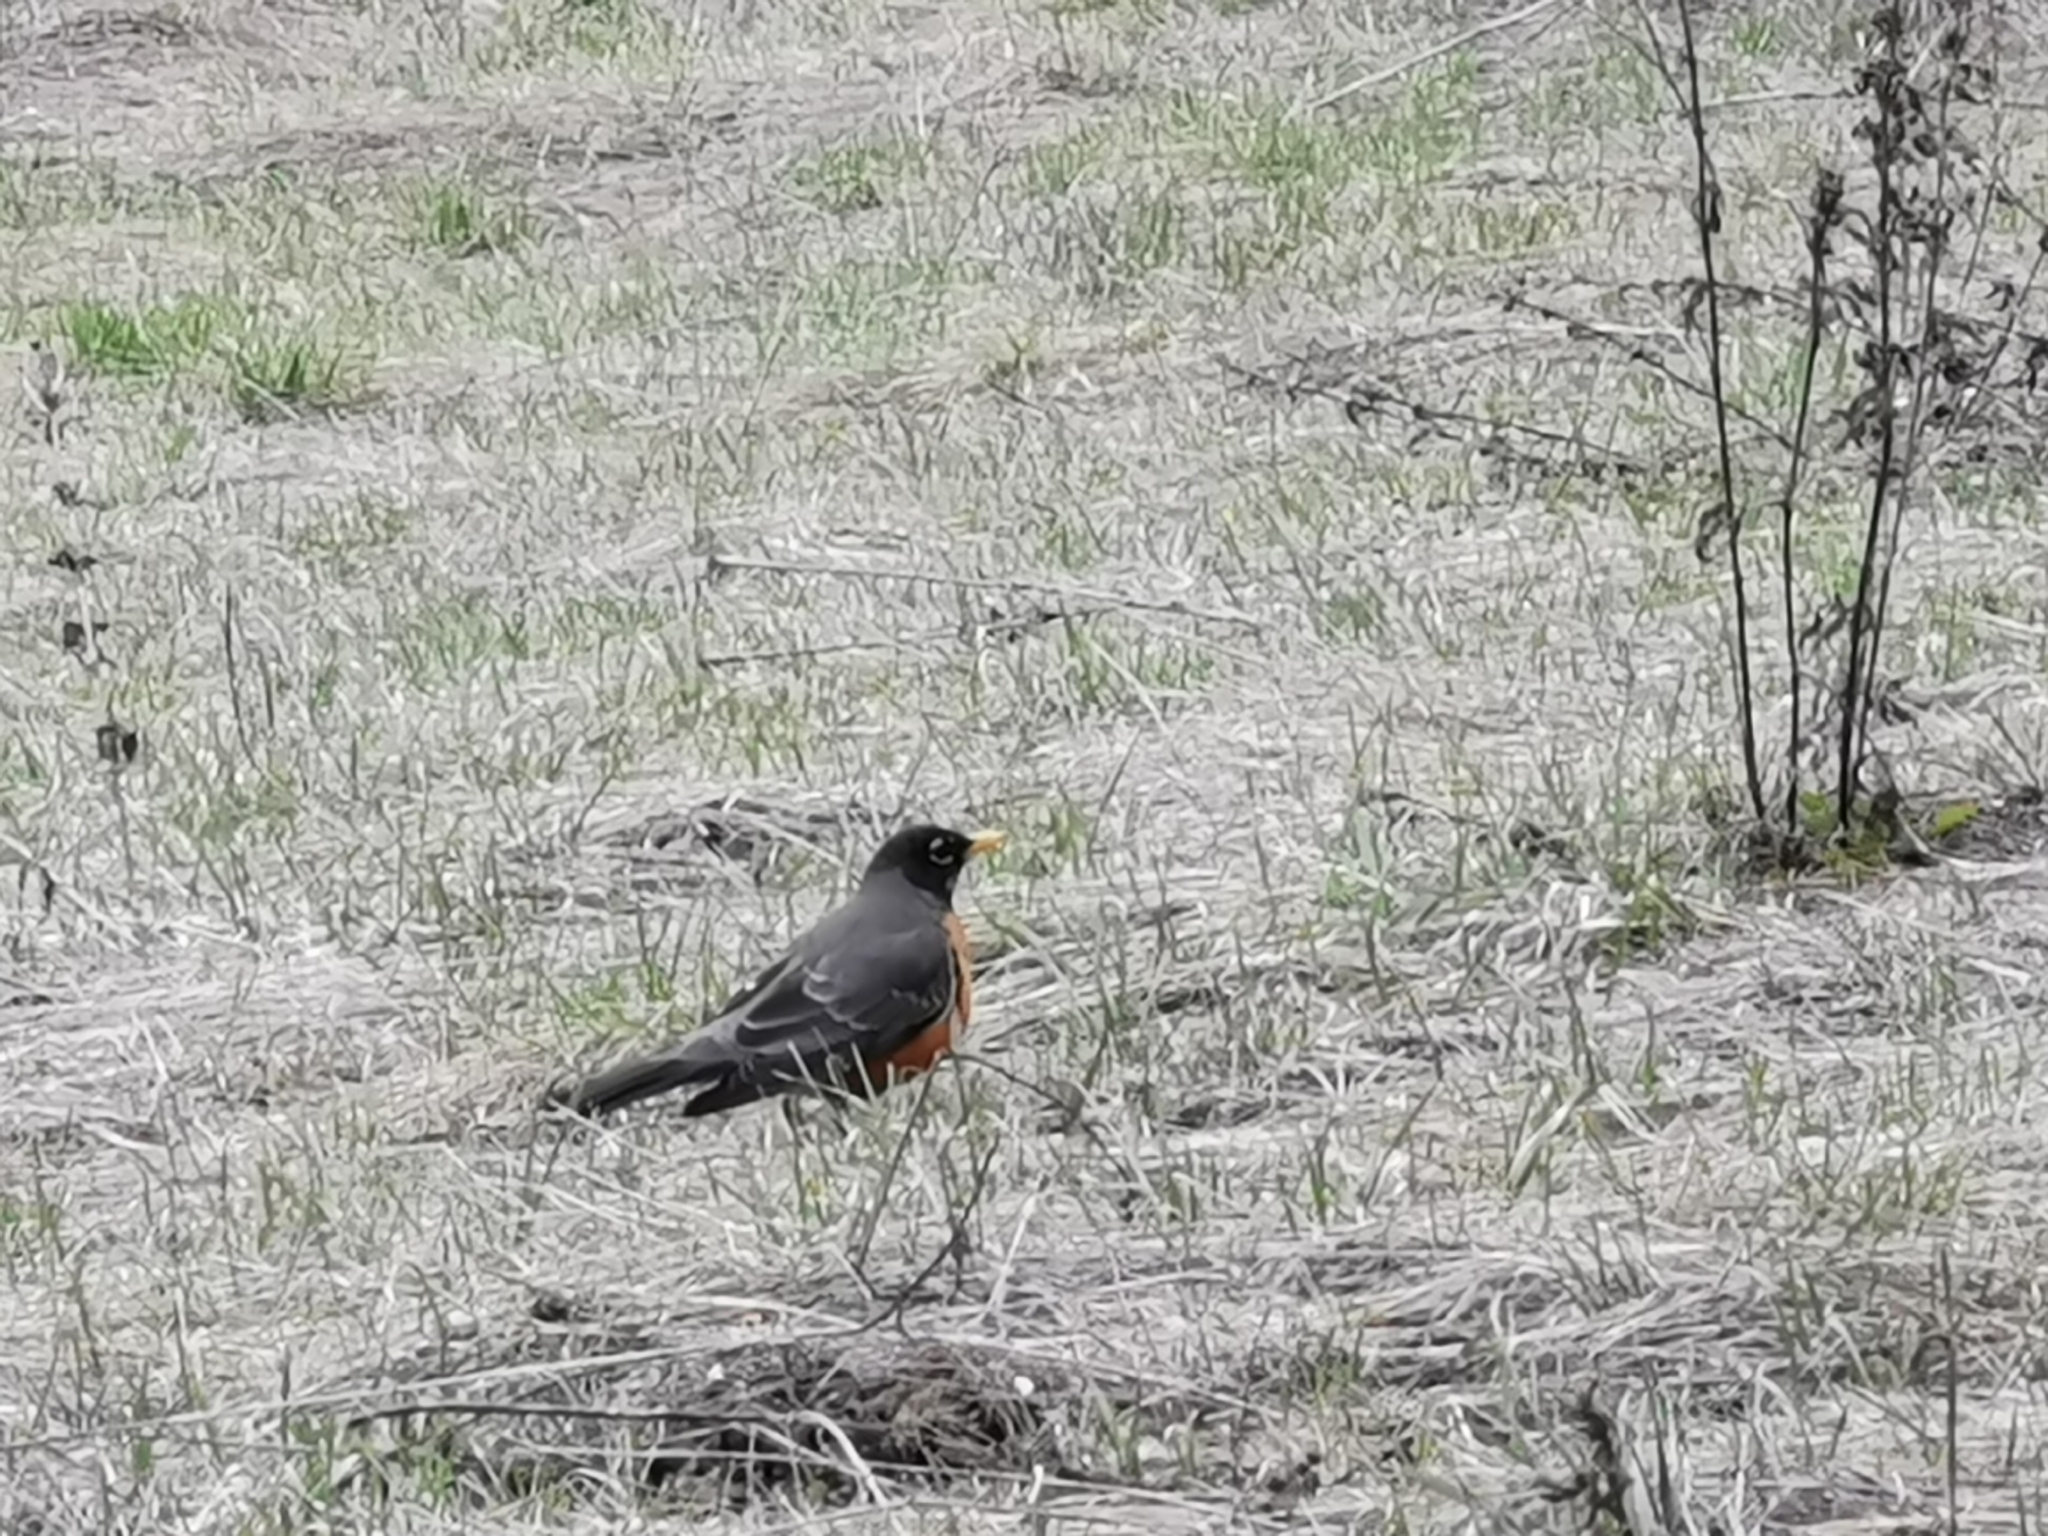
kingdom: Animalia
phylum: Chordata
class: Aves
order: Passeriformes
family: Turdidae
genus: Turdus
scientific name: Turdus migratorius
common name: American robin
